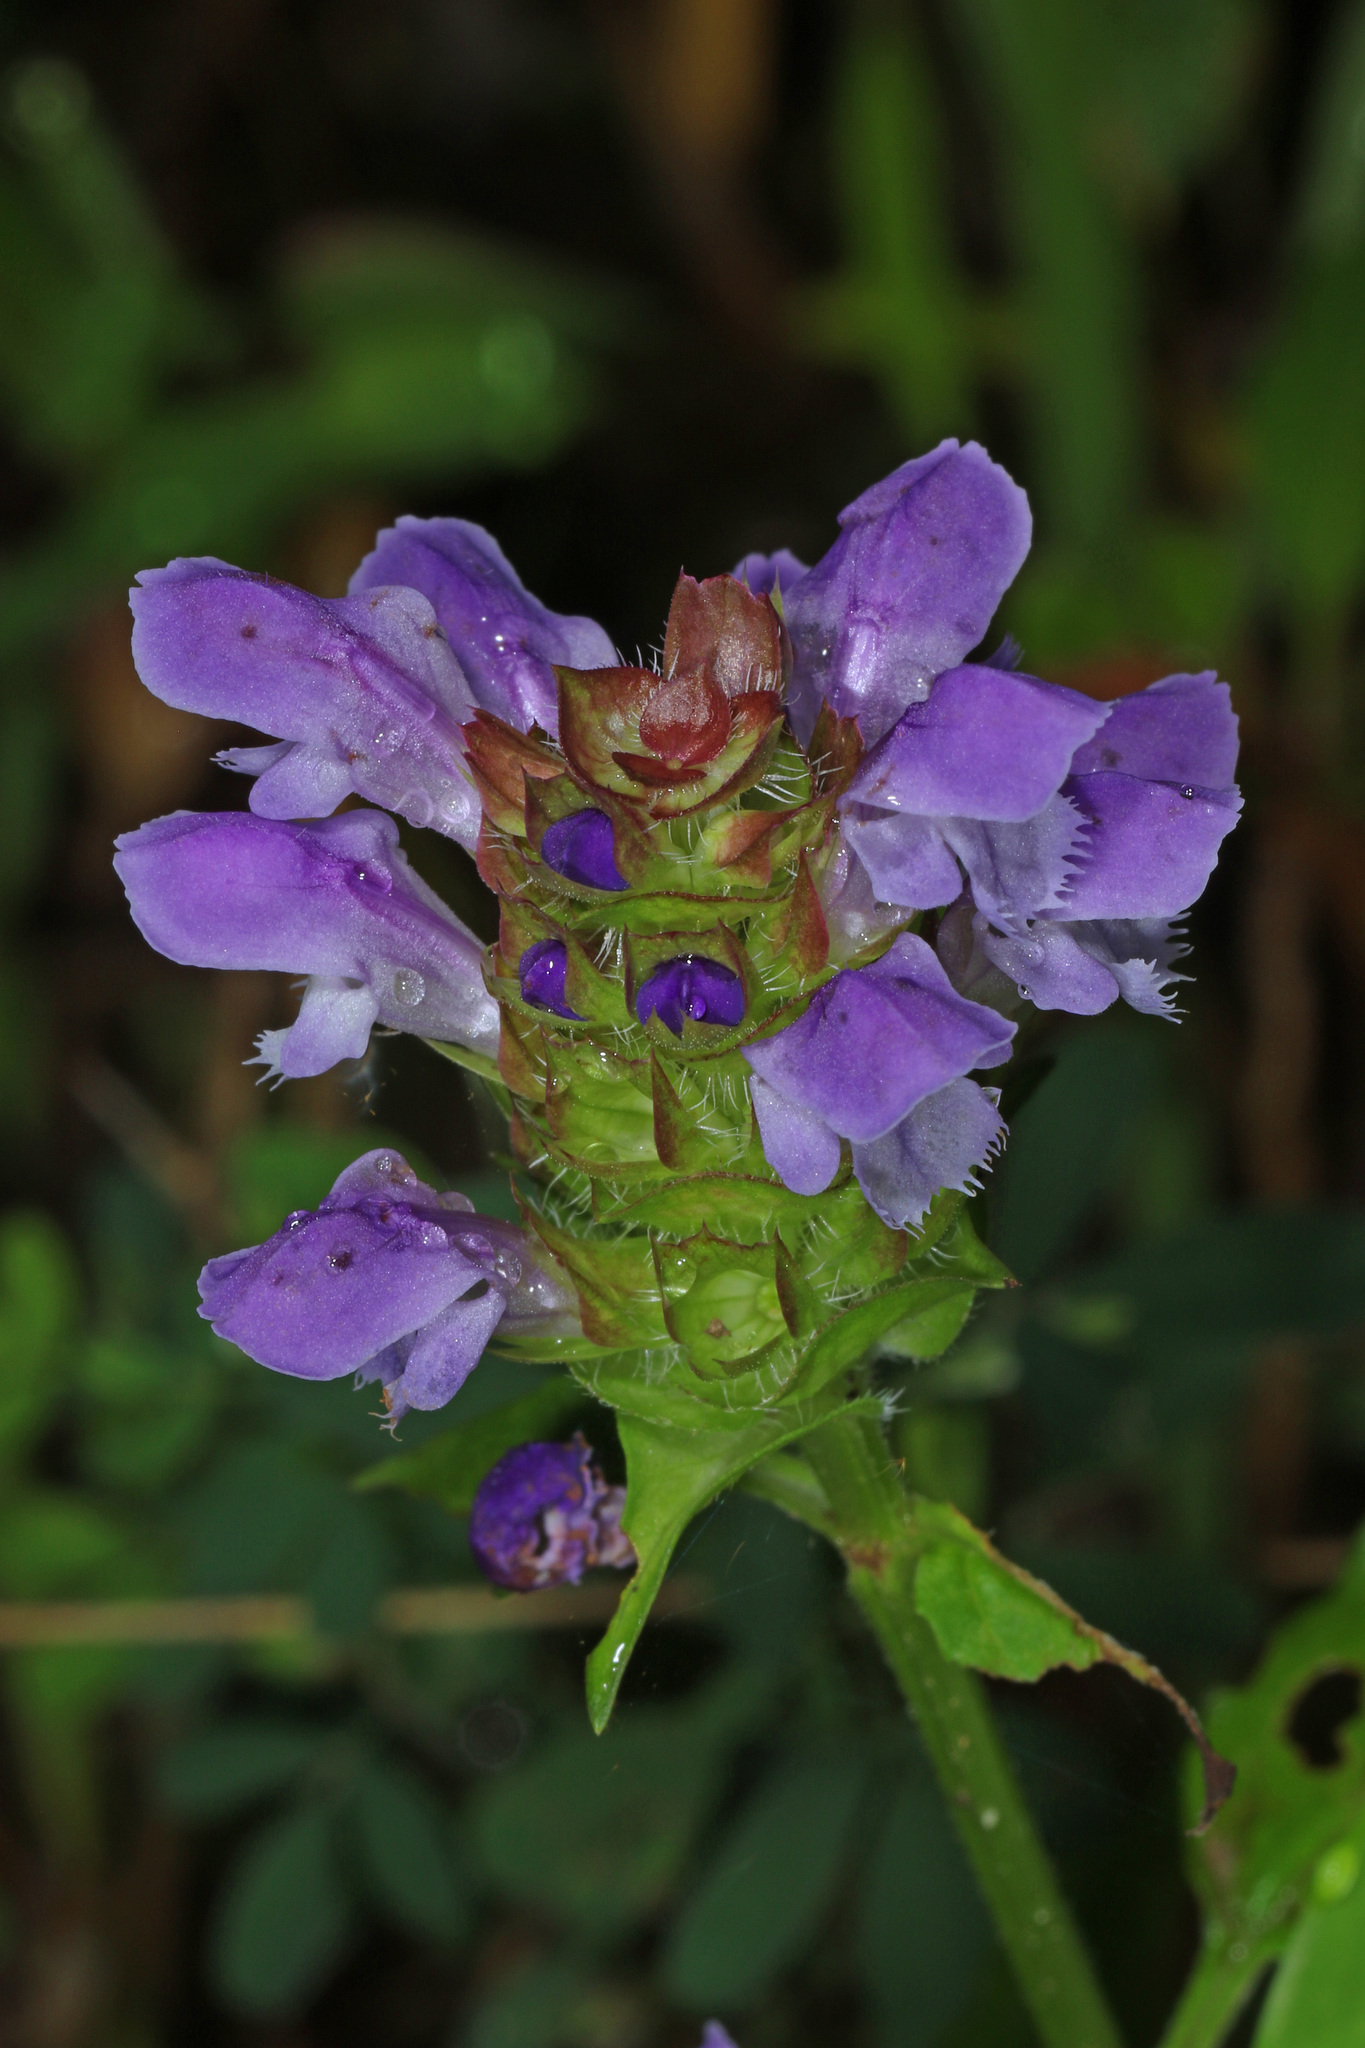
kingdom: Plantae
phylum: Tracheophyta
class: Magnoliopsida
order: Lamiales
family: Lamiaceae
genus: Prunella
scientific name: Prunella vulgaris
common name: Heal-all
